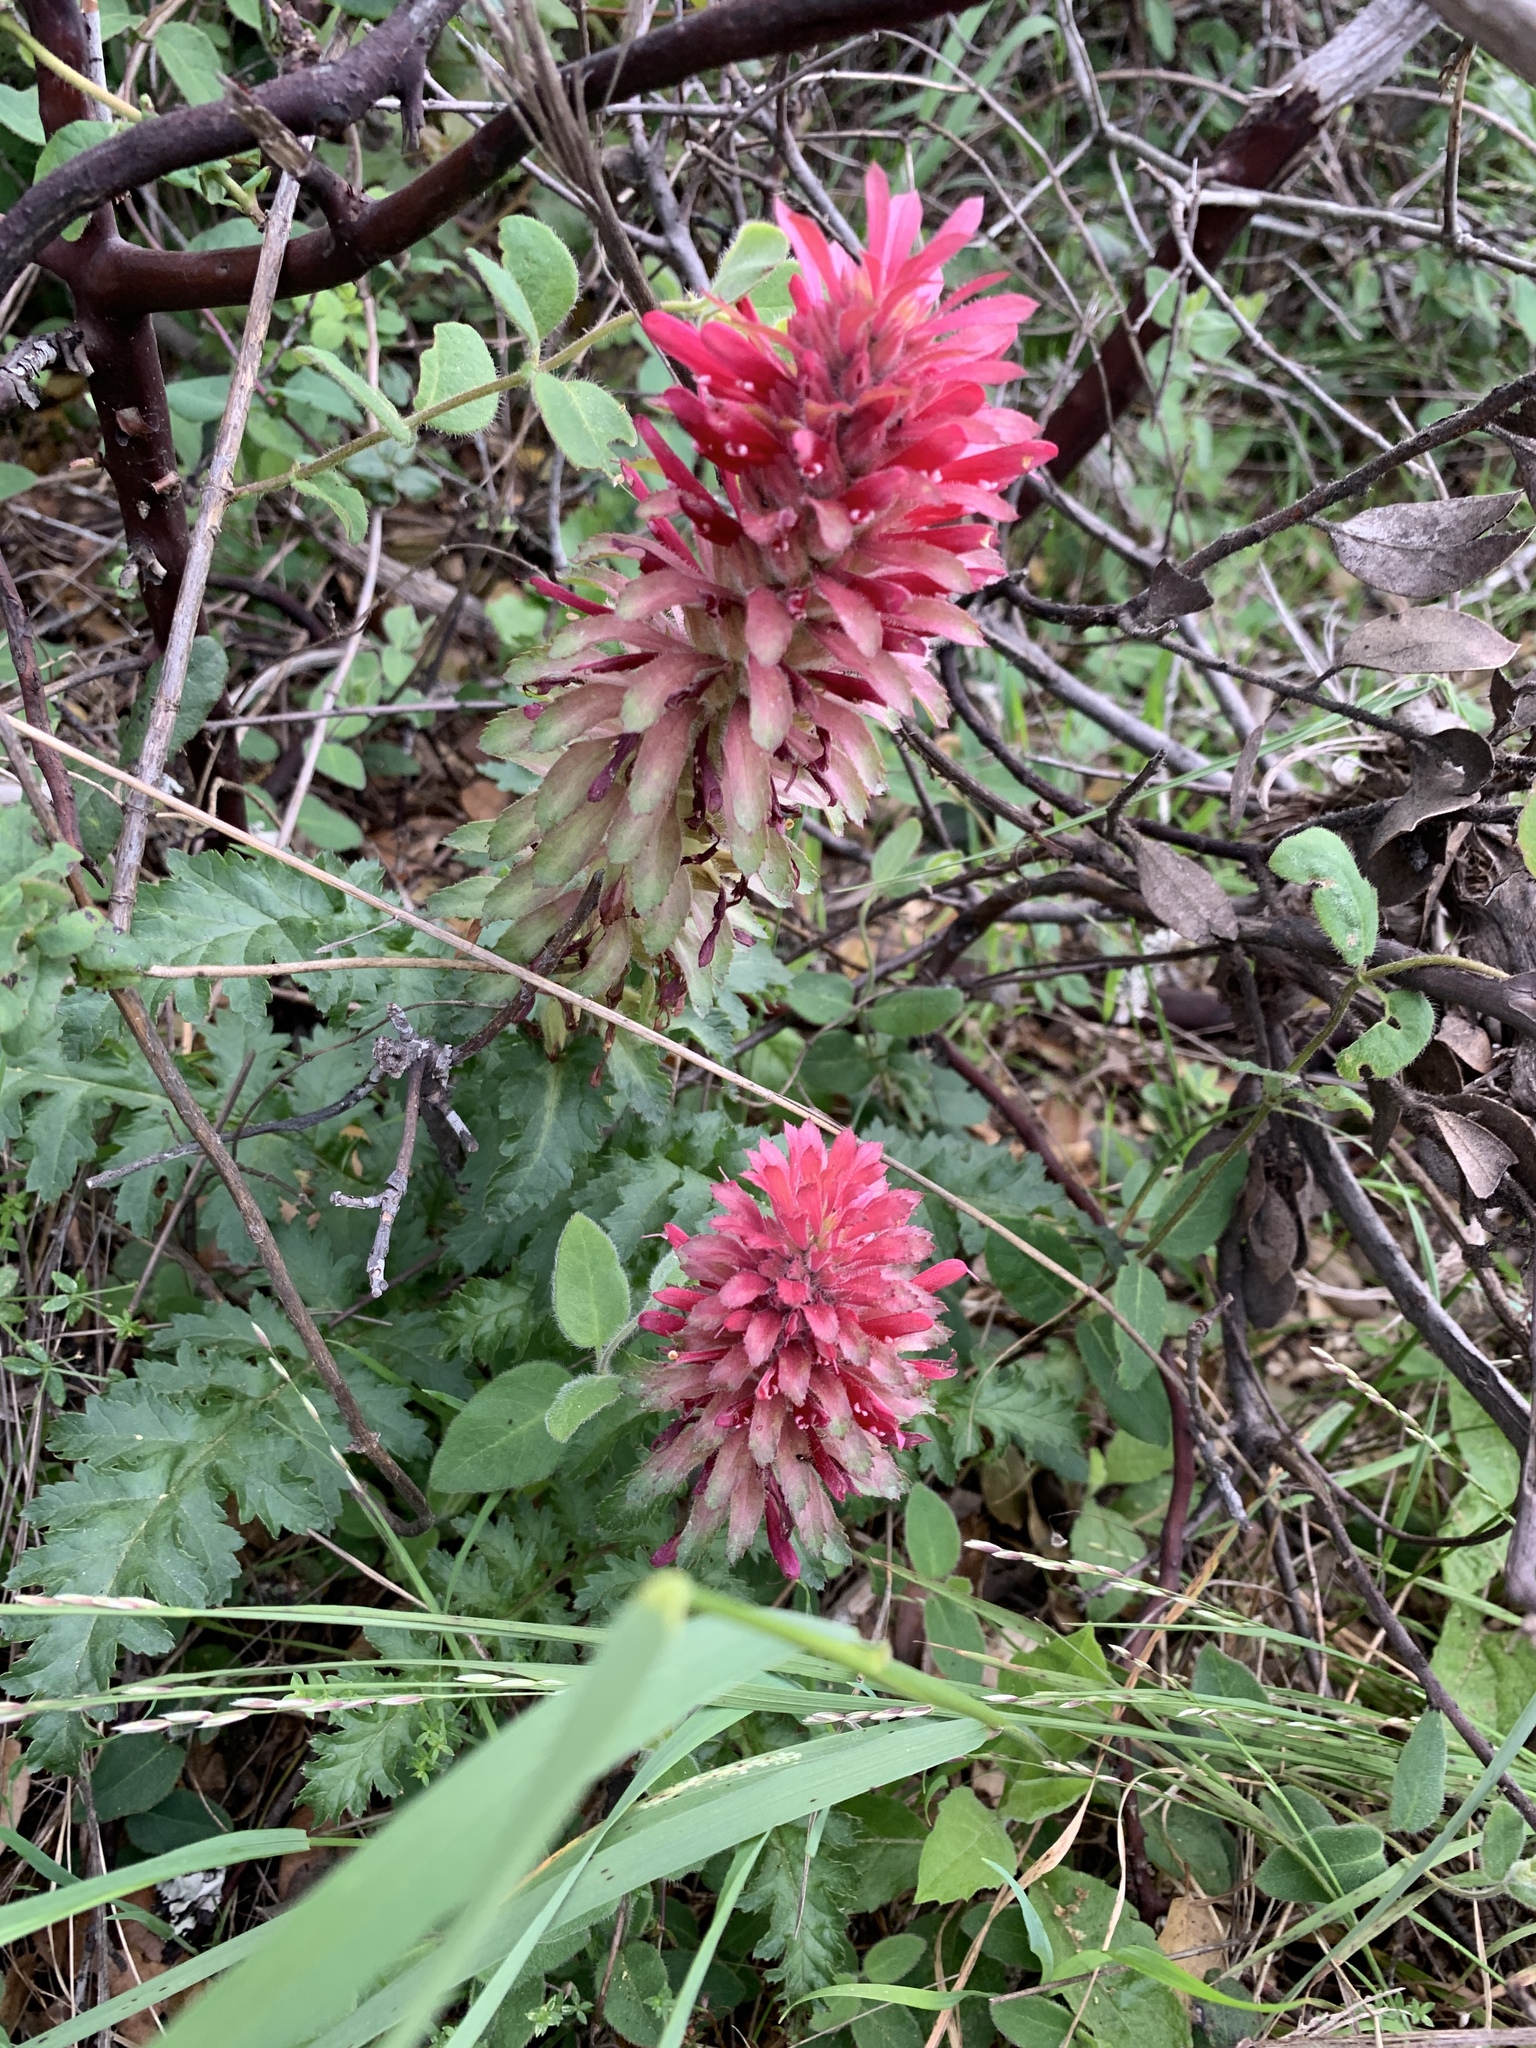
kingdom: Plantae
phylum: Tracheophyta
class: Magnoliopsida
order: Lamiales
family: Orobanchaceae
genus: Pedicularis
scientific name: Pedicularis densiflora
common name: Indian warrior
